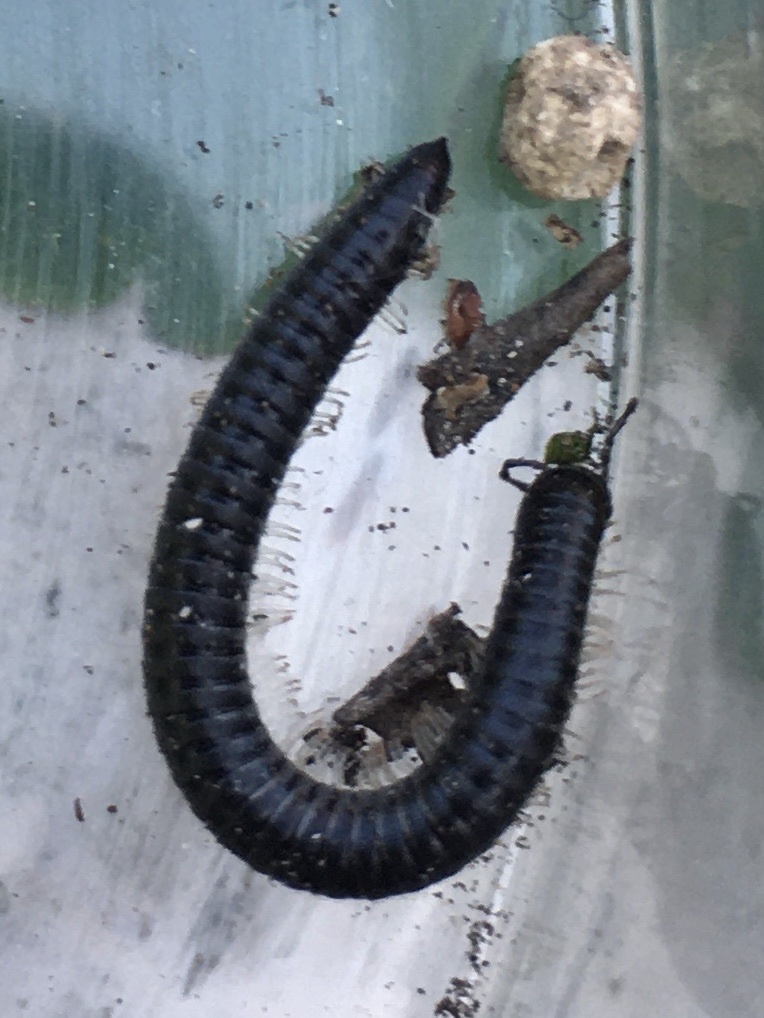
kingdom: Animalia
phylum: Arthropoda
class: Diplopoda
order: Julida
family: Julidae
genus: Tachypodoiulus
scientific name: Tachypodoiulus niger
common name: White-legged snake millipede
